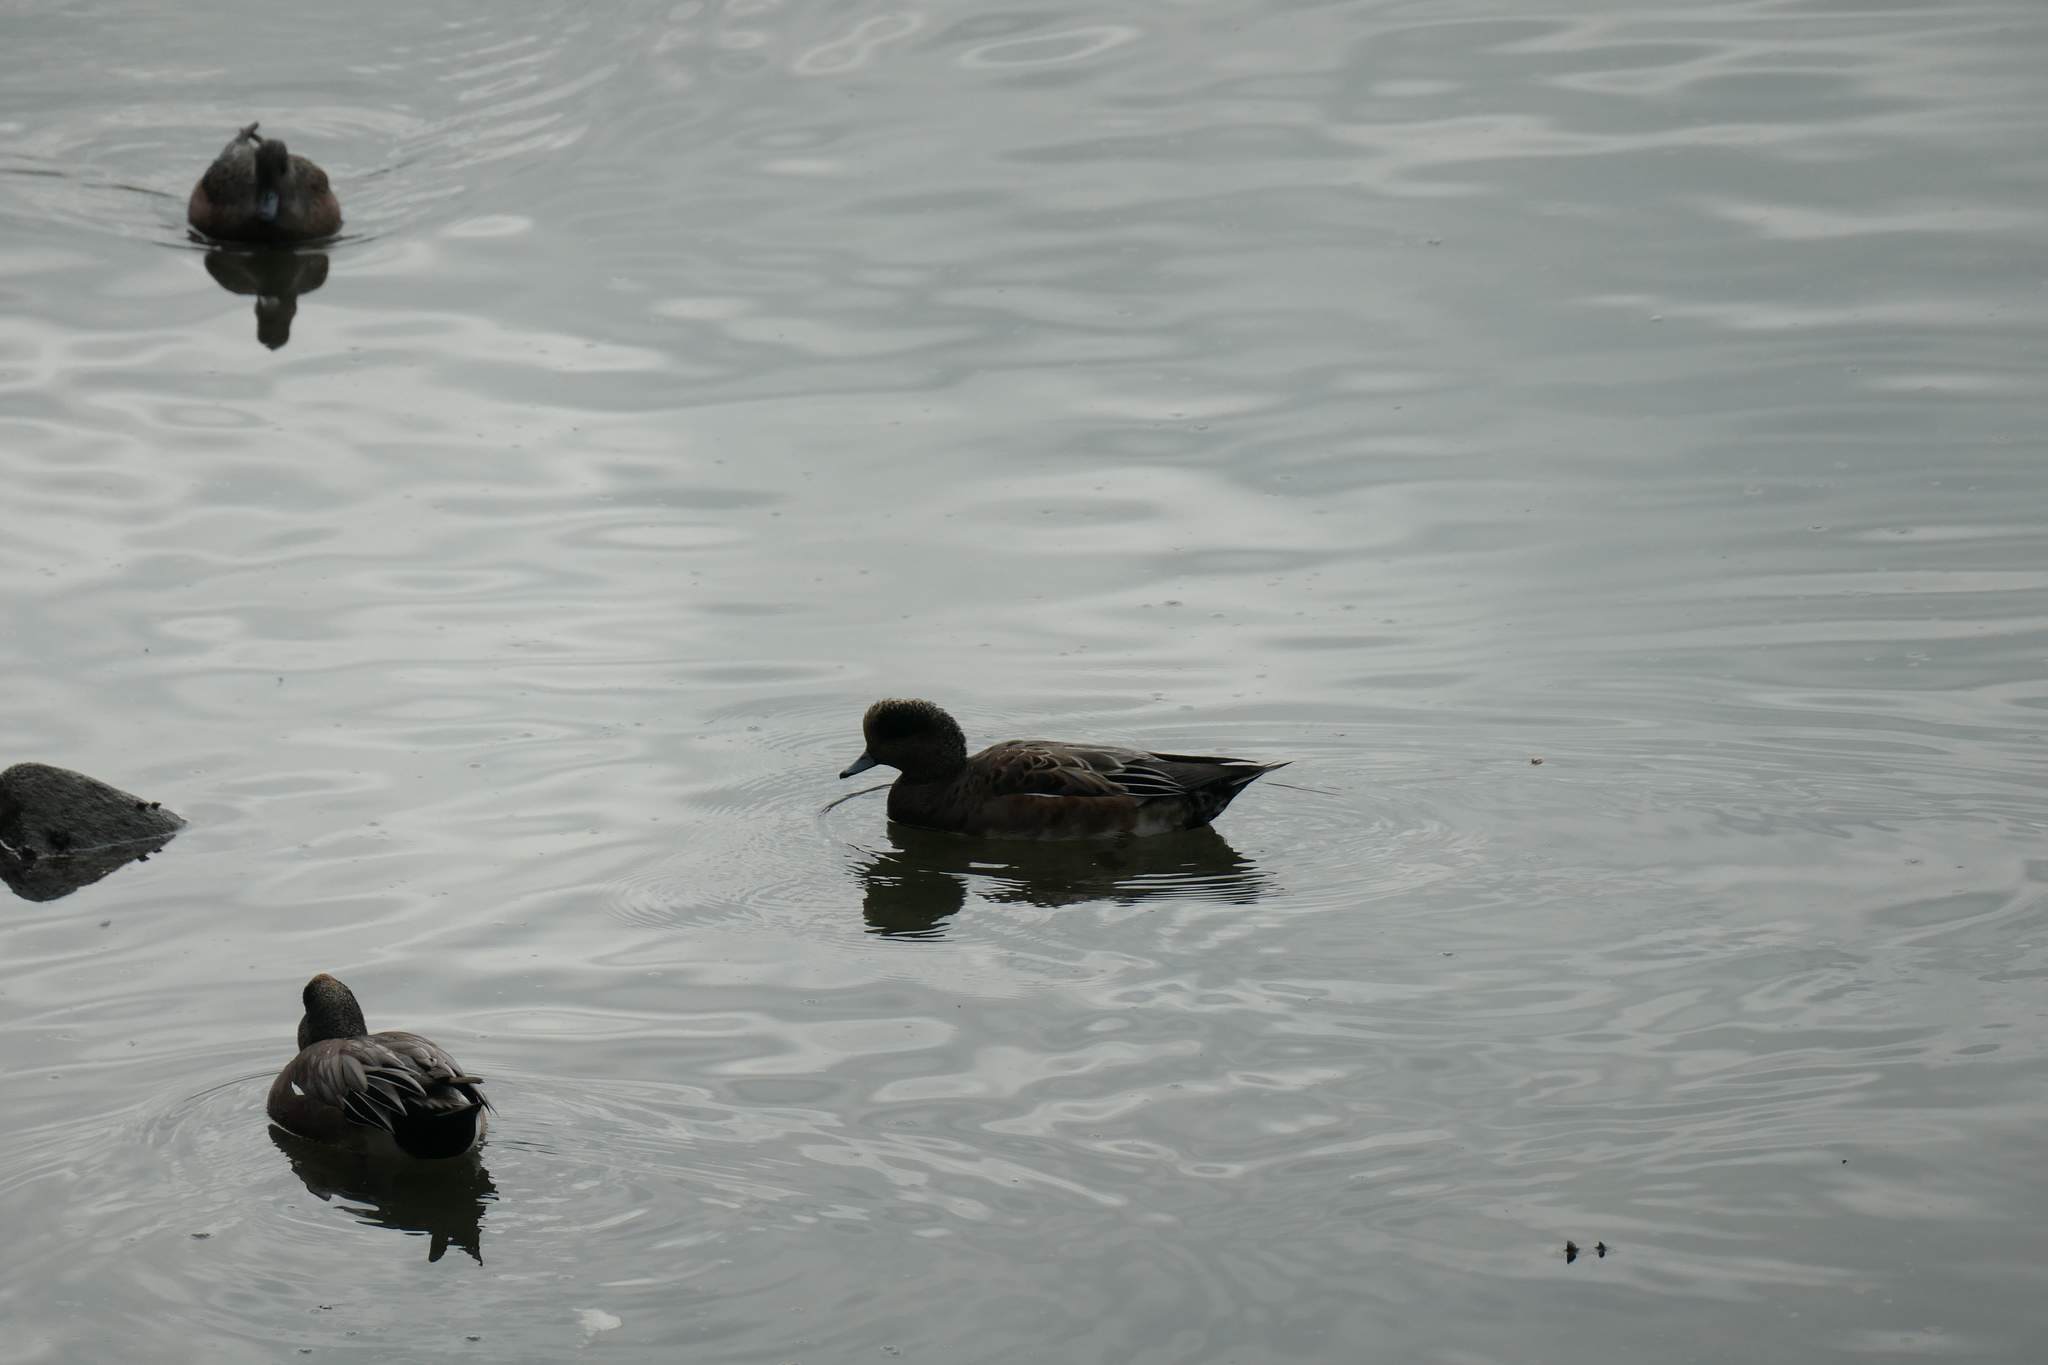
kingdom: Animalia
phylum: Chordata
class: Aves
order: Anseriformes
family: Anatidae
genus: Mareca
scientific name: Mareca americana
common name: American wigeon
